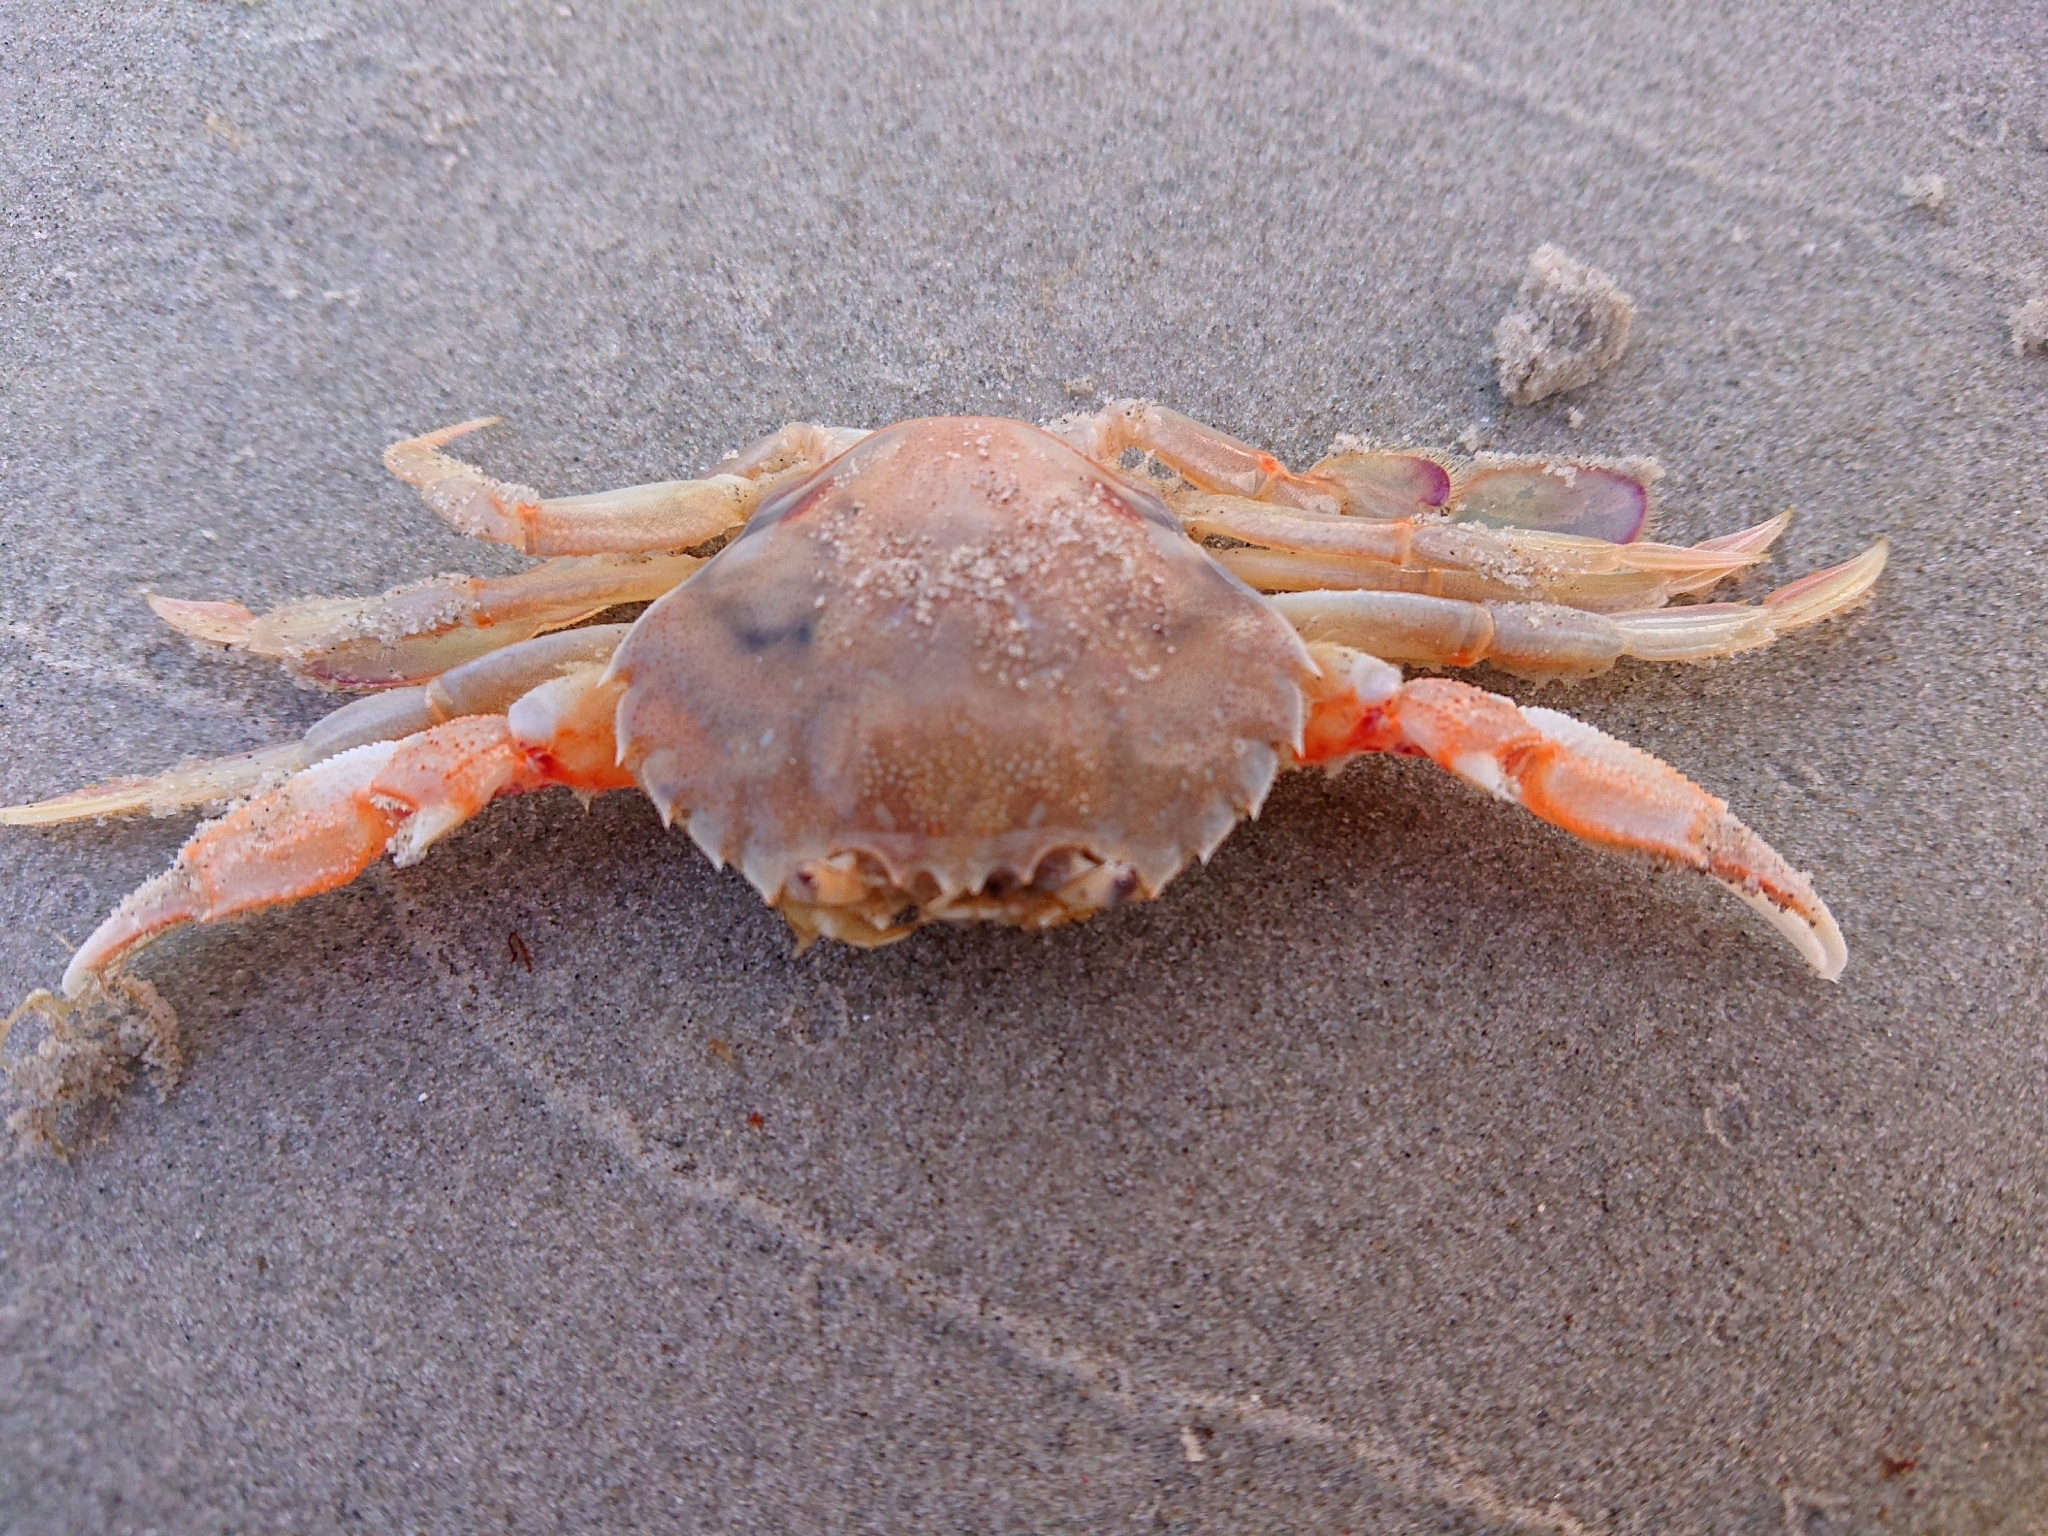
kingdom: Animalia
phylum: Arthropoda
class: Malacostraca
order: Decapoda
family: Ovalipidae
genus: Ovalipes
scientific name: Ovalipes australiensis
